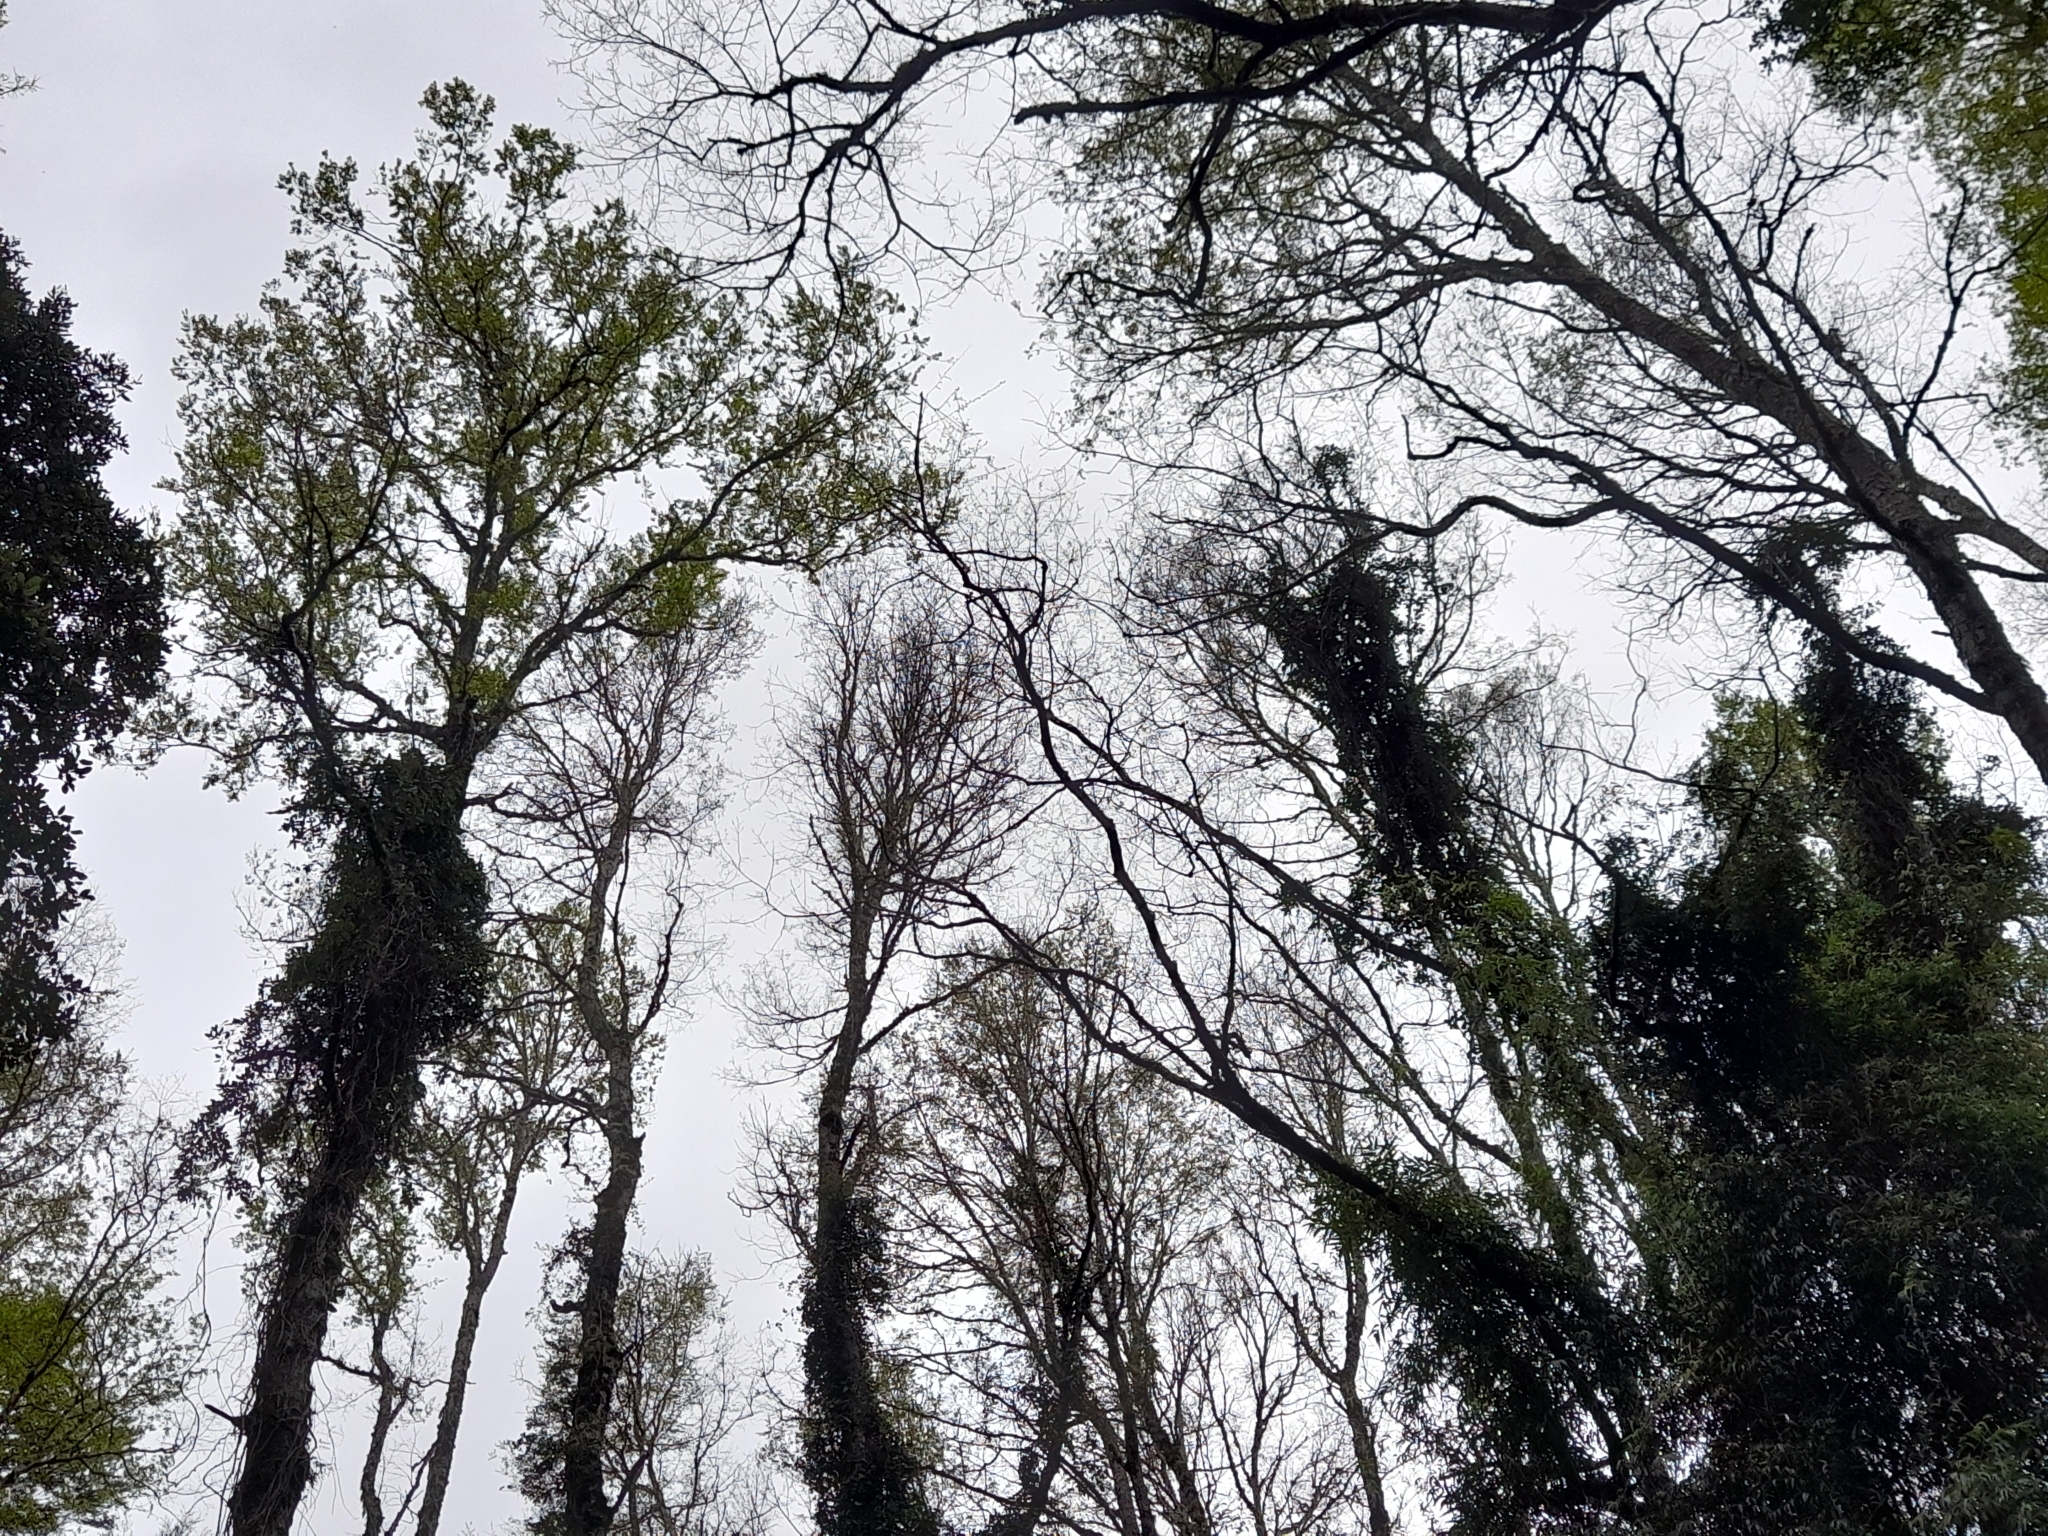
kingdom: Plantae
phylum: Tracheophyta
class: Magnoliopsida
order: Fagales
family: Nothofagaceae
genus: Nothofagus
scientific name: Nothofagus obliqua
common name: Roble beech
